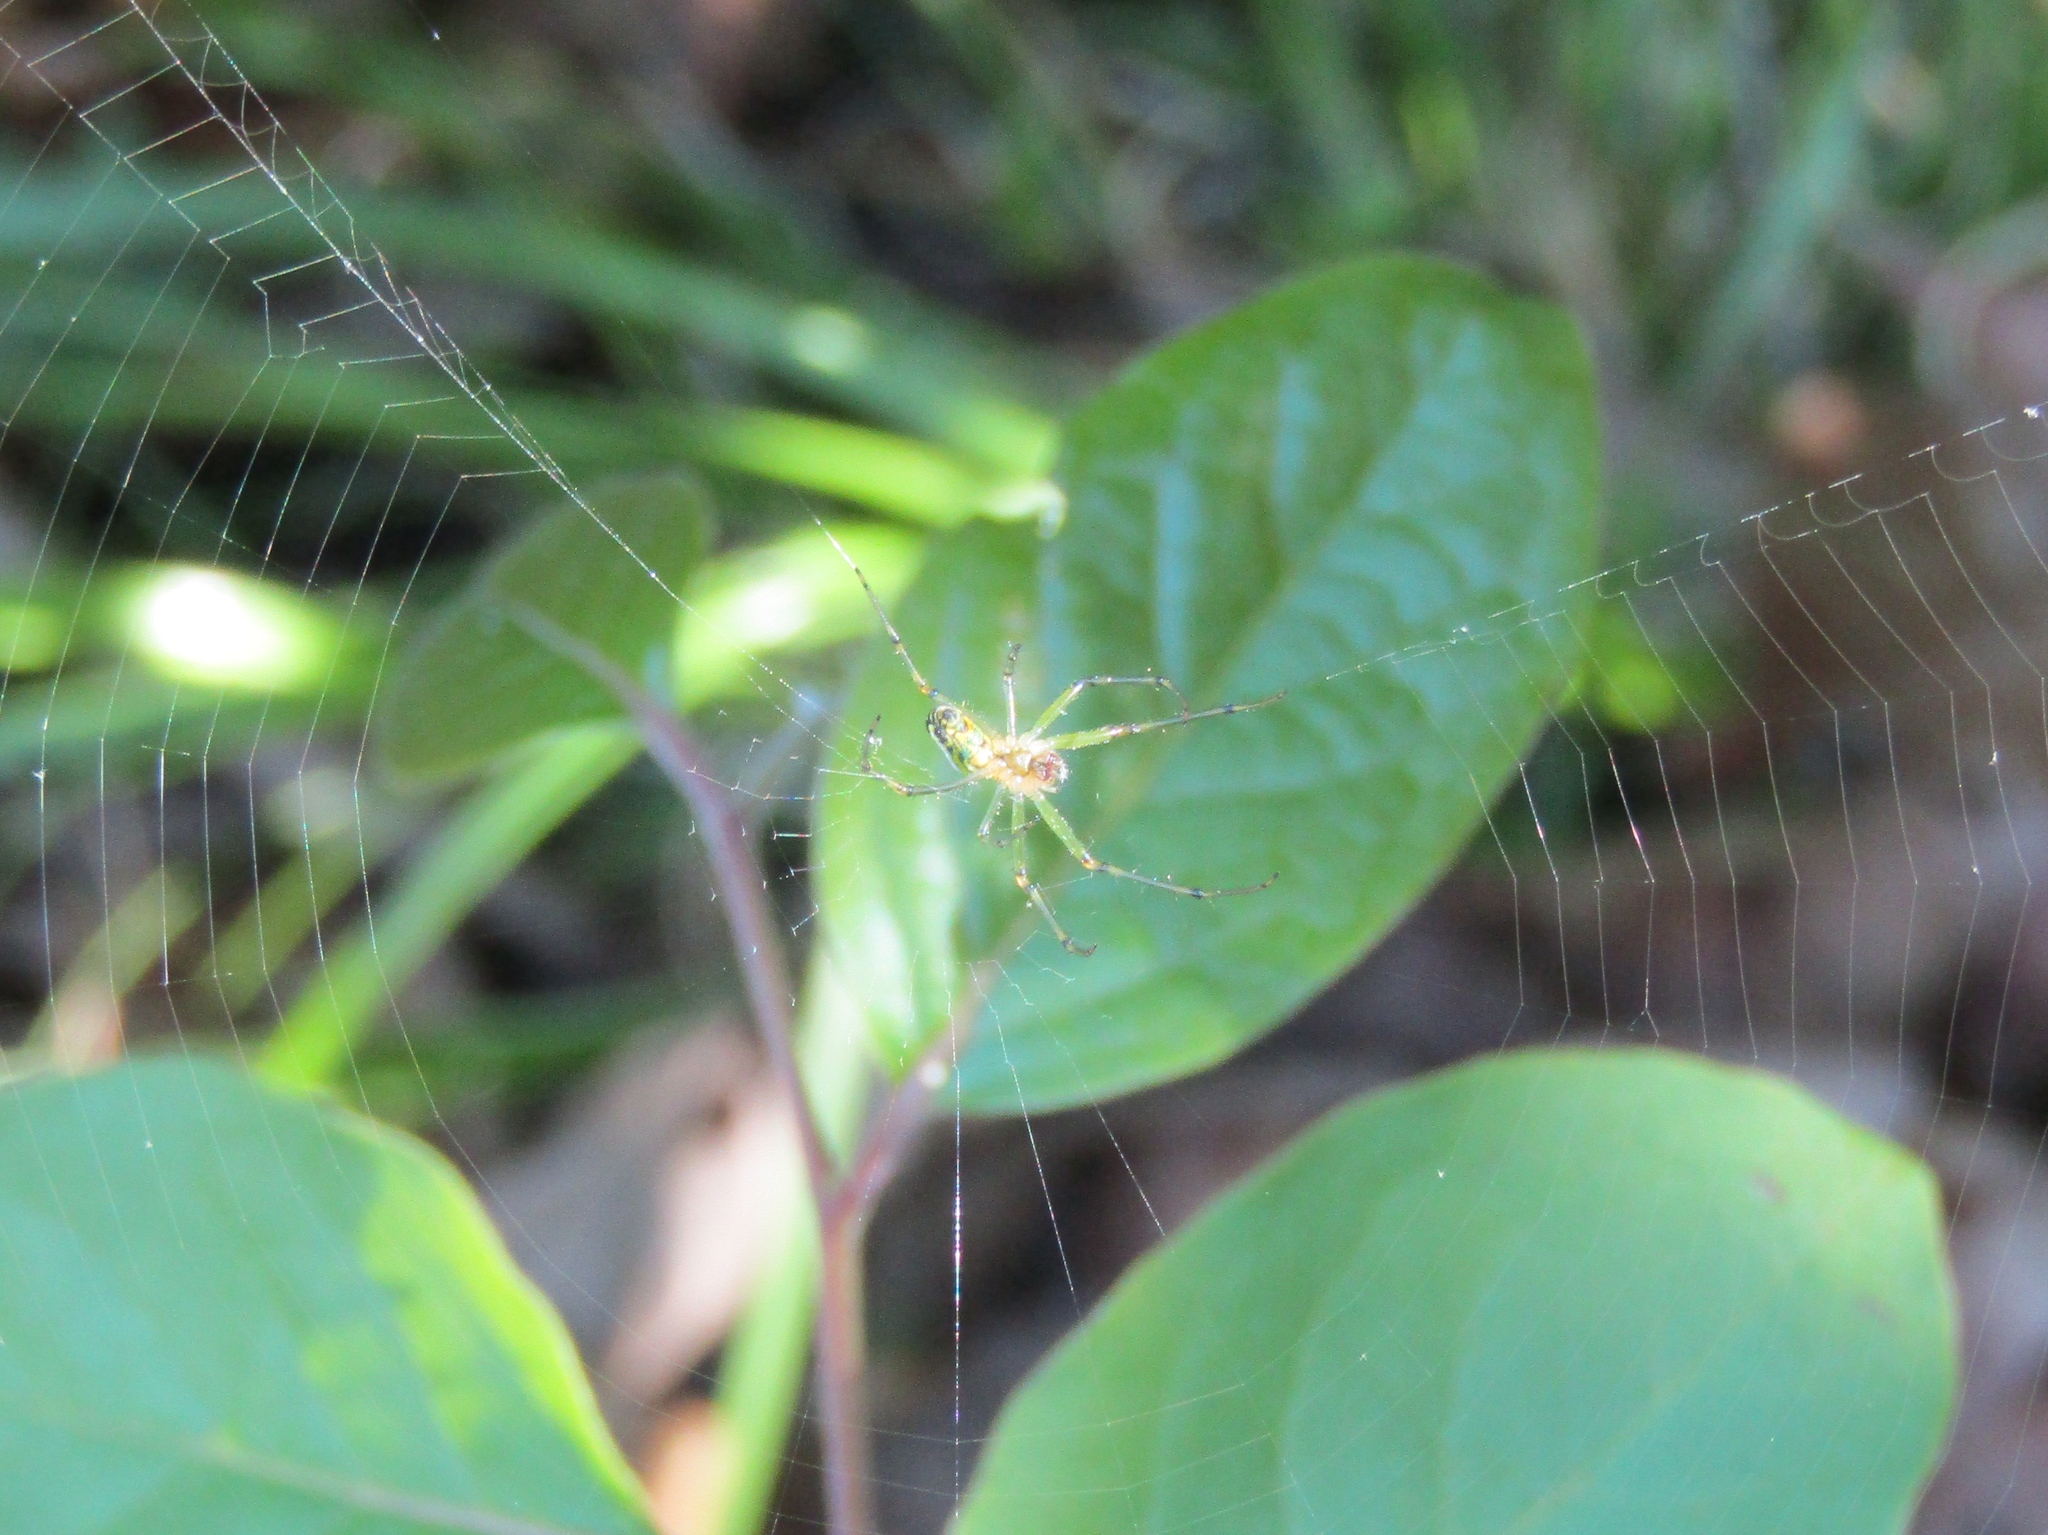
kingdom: Animalia
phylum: Arthropoda
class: Arachnida
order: Araneae
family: Tetragnathidae
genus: Leucauge
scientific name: Leucauge venusta
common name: Longjawed orb weavers
